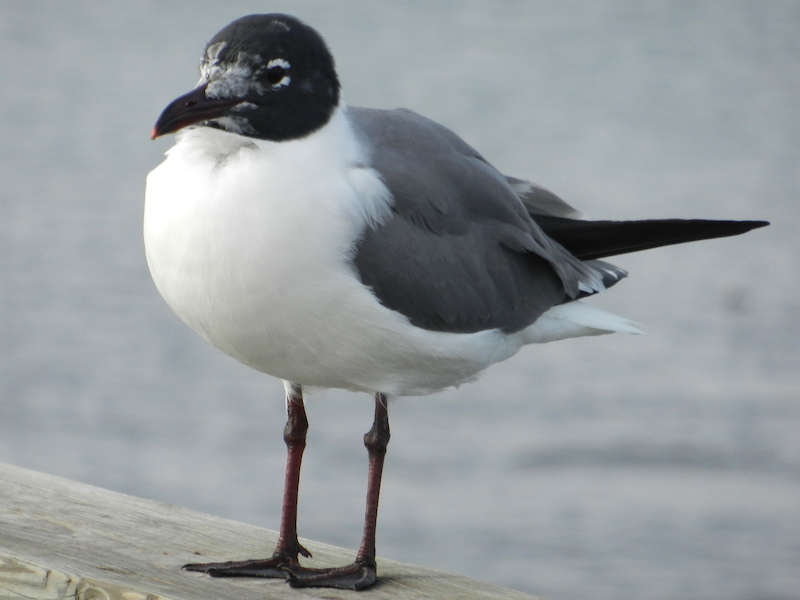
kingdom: Animalia
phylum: Chordata
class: Aves
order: Charadriiformes
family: Laridae
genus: Leucophaeus
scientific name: Leucophaeus atricilla
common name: Laughing gull
